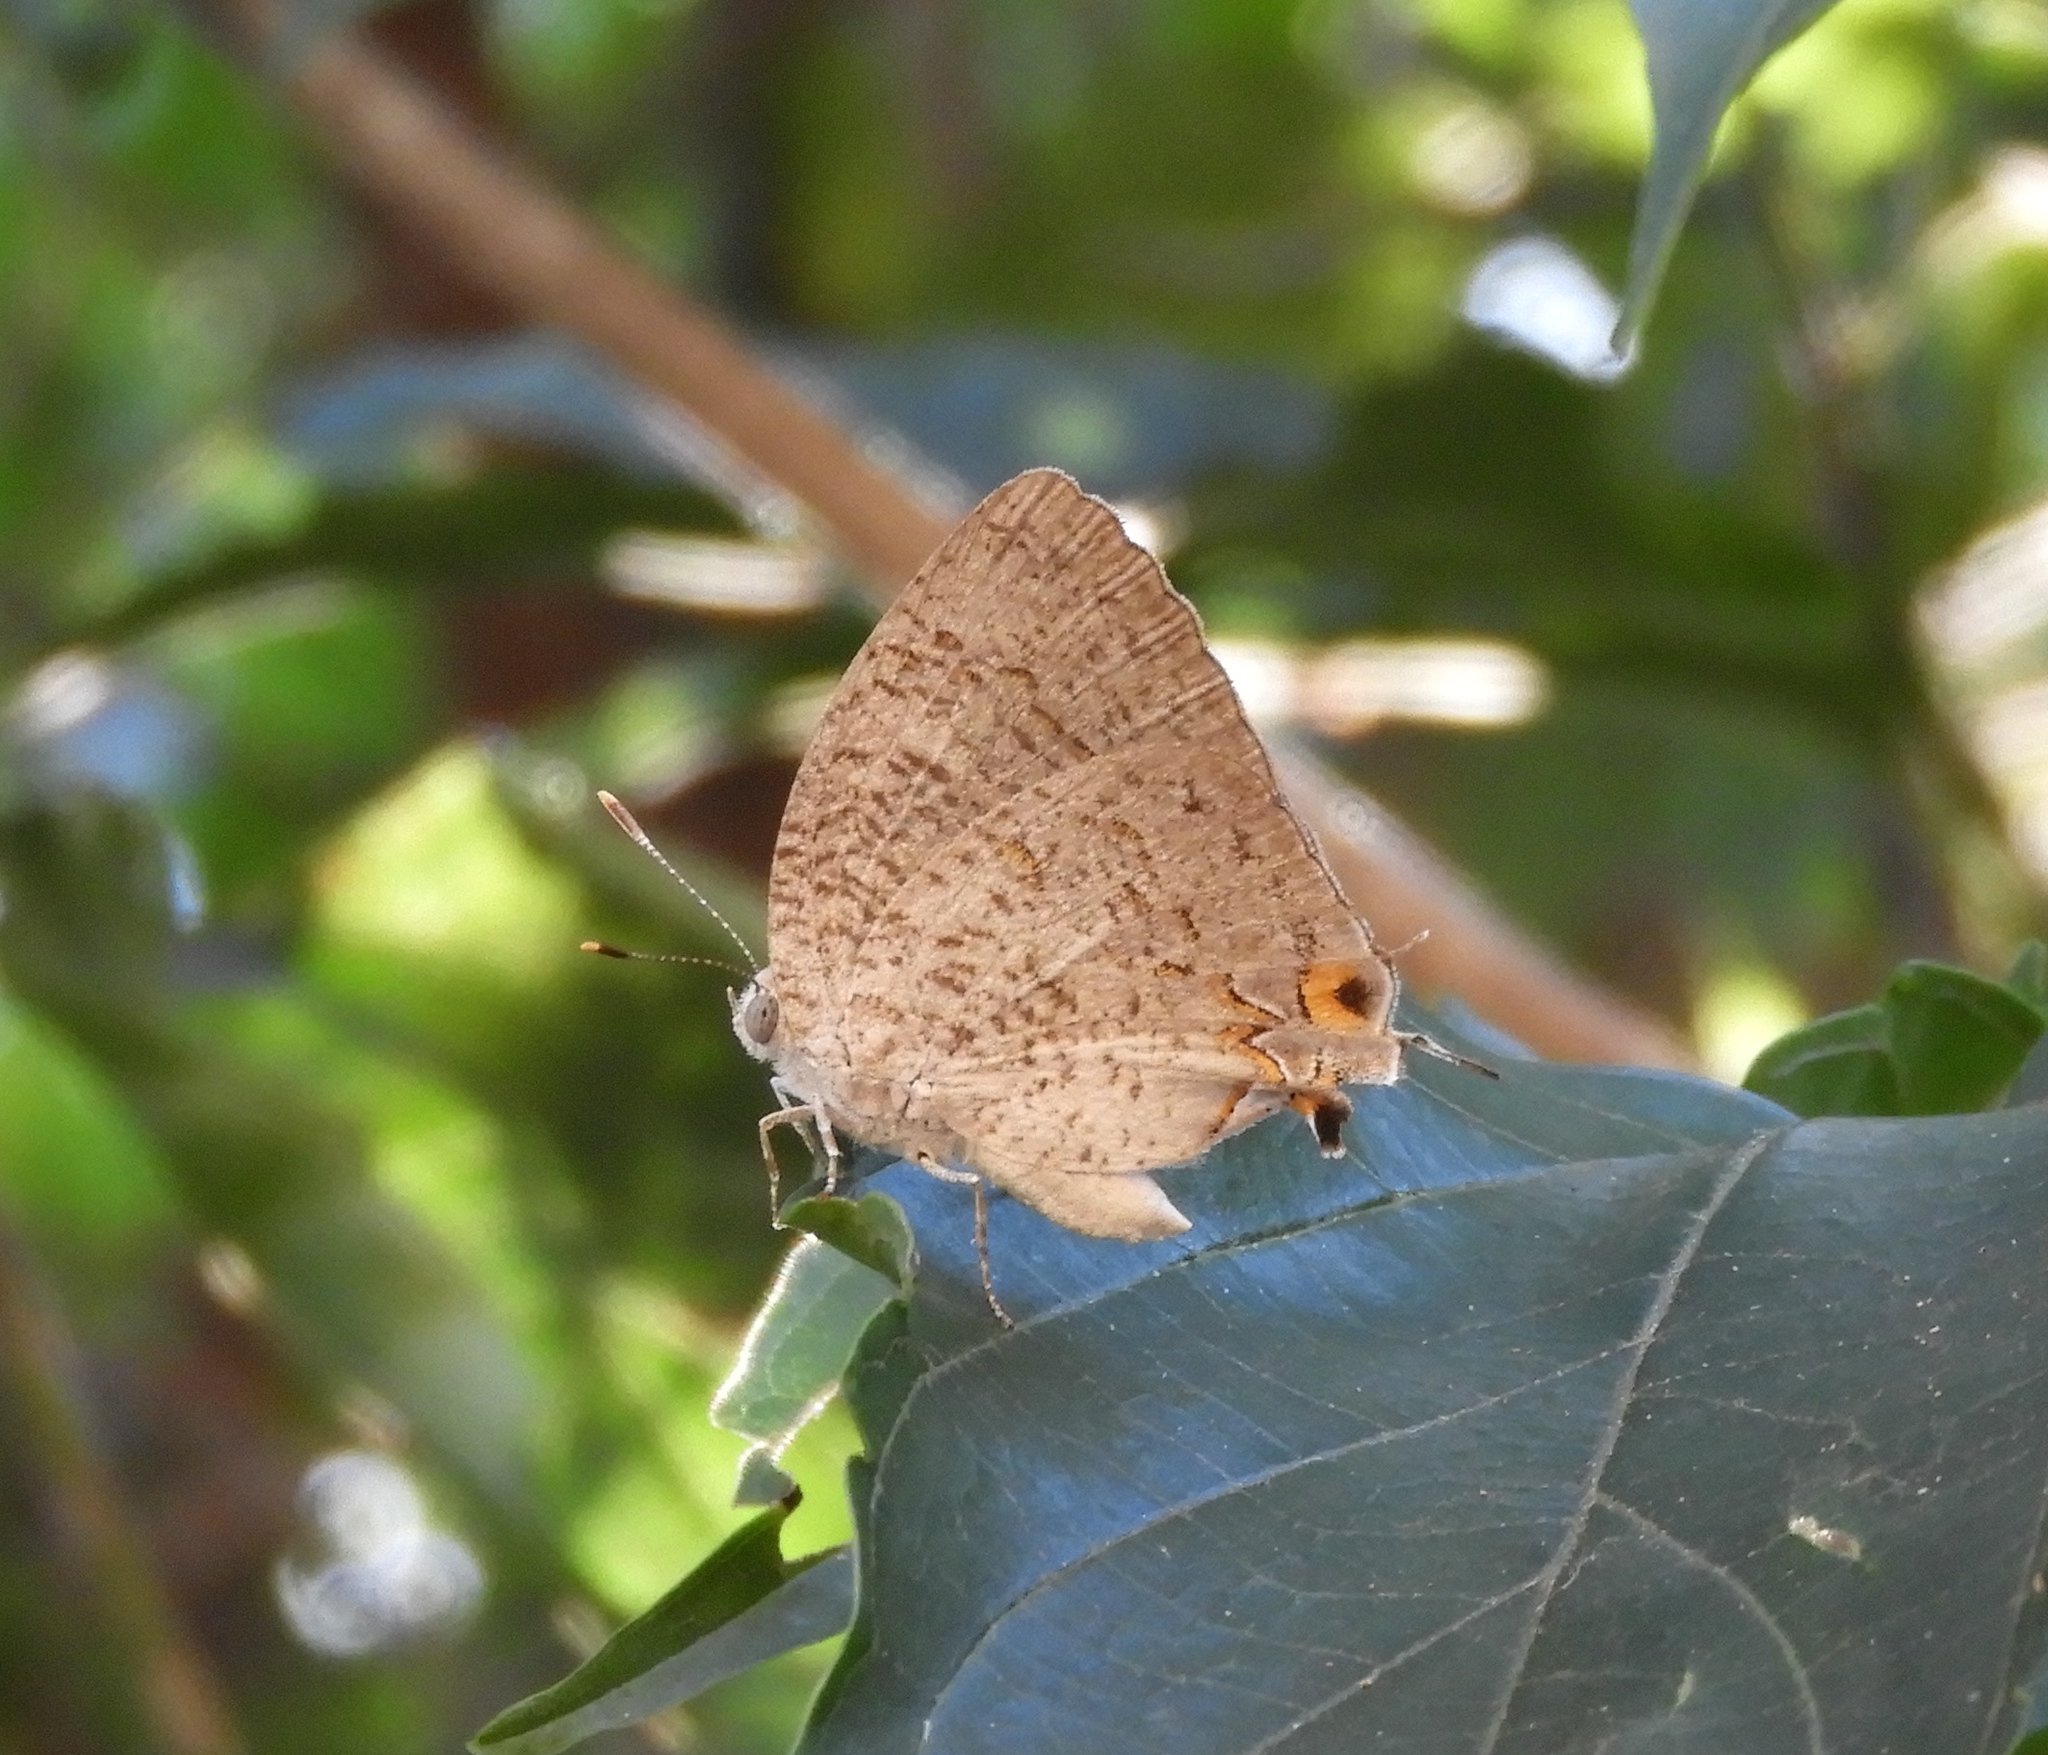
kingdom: Animalia
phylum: Arthropoda
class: Insecta
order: Lepidoptera
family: Lycaenidae
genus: Hypostrymon
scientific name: Hypostrymon critola
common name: Sonoran hairstreak
